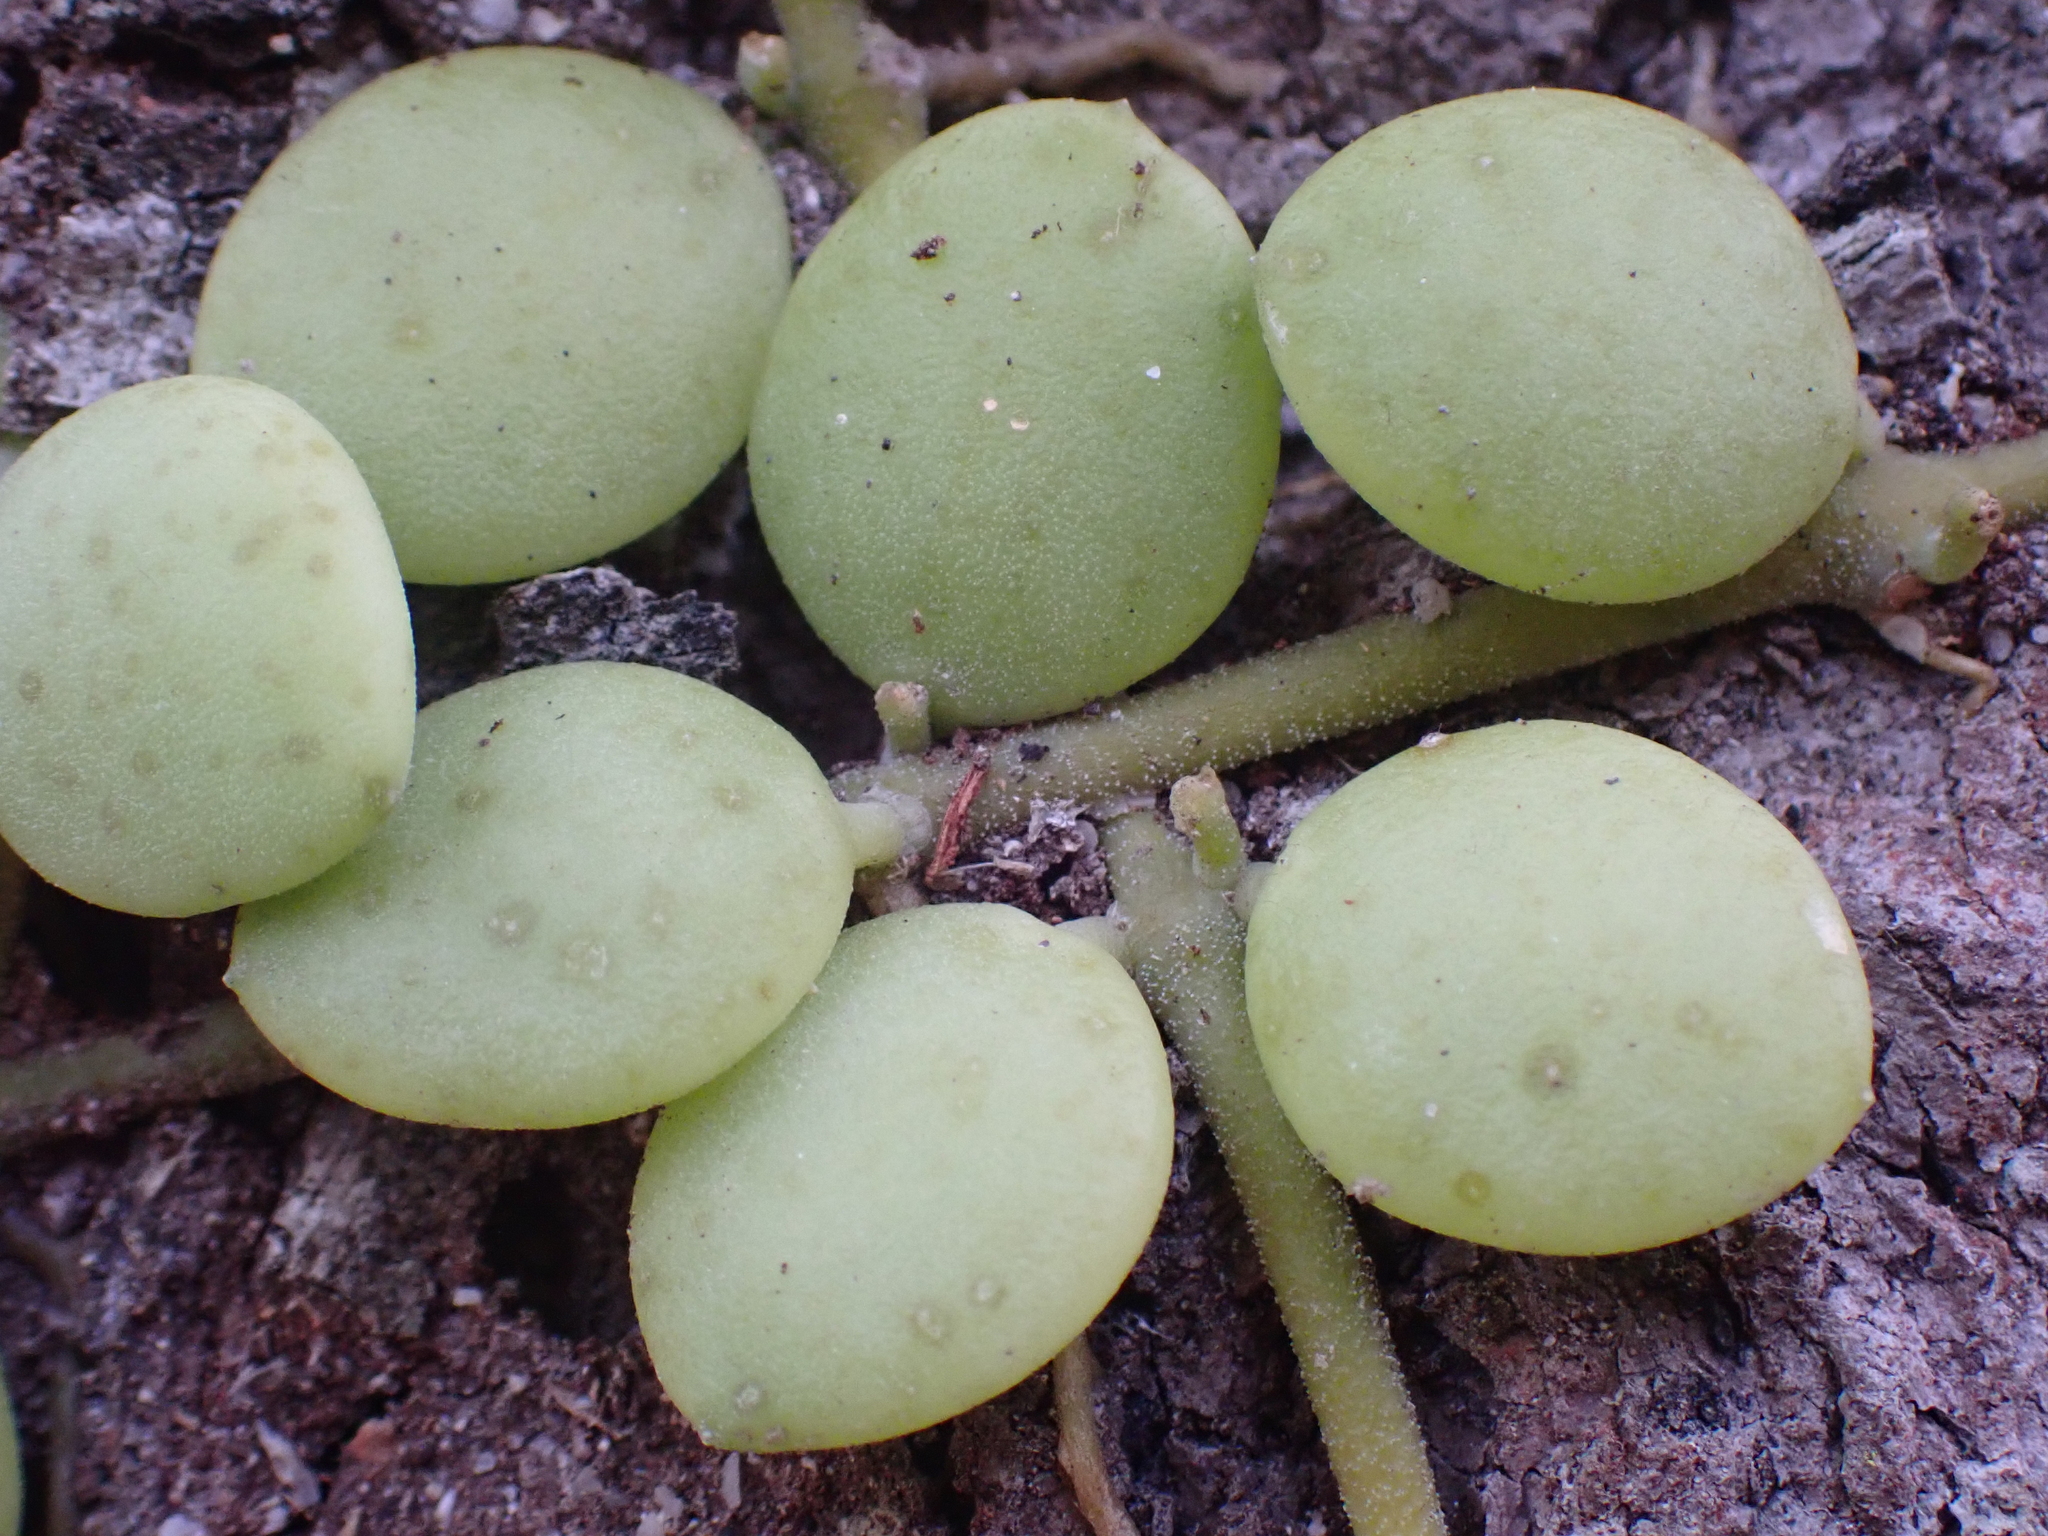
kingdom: Plantae
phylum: Tracheophyta
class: Magnoliopsida
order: Gentianales
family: Apocynaceae
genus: Dischidia
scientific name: Dischidia nummularia
